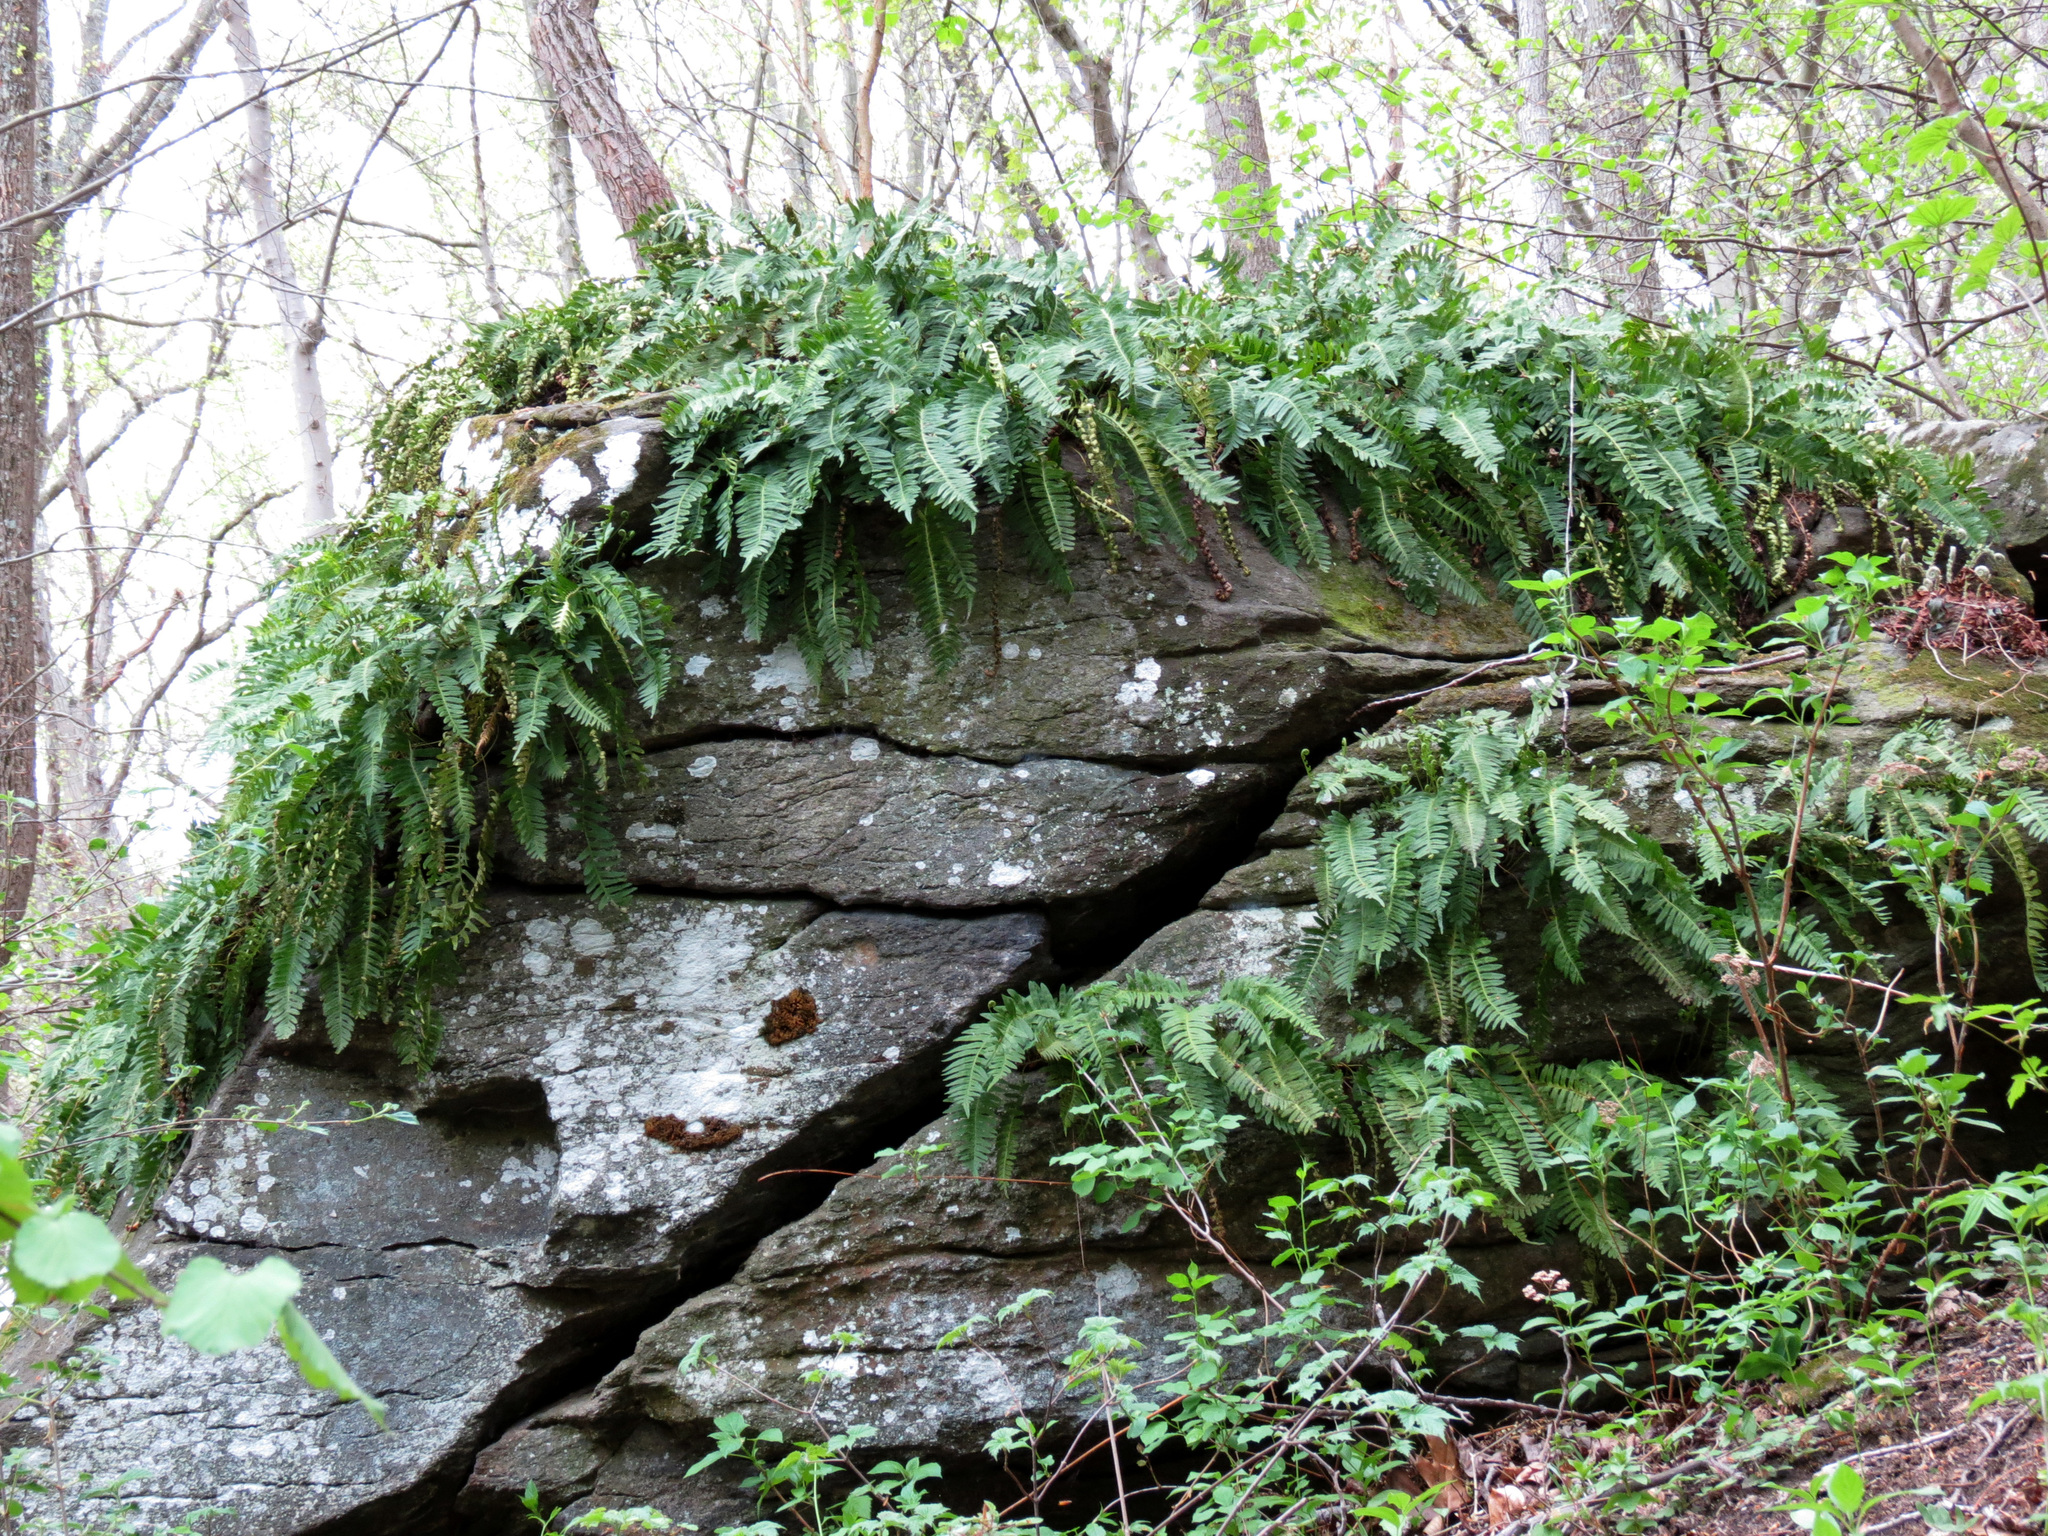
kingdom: Plantae
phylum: Tracheophyta
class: Polypodiopsida
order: Polypodiales
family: Polypodiaceae
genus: Polypodium
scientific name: Polypodium virginianum
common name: American wall fern
